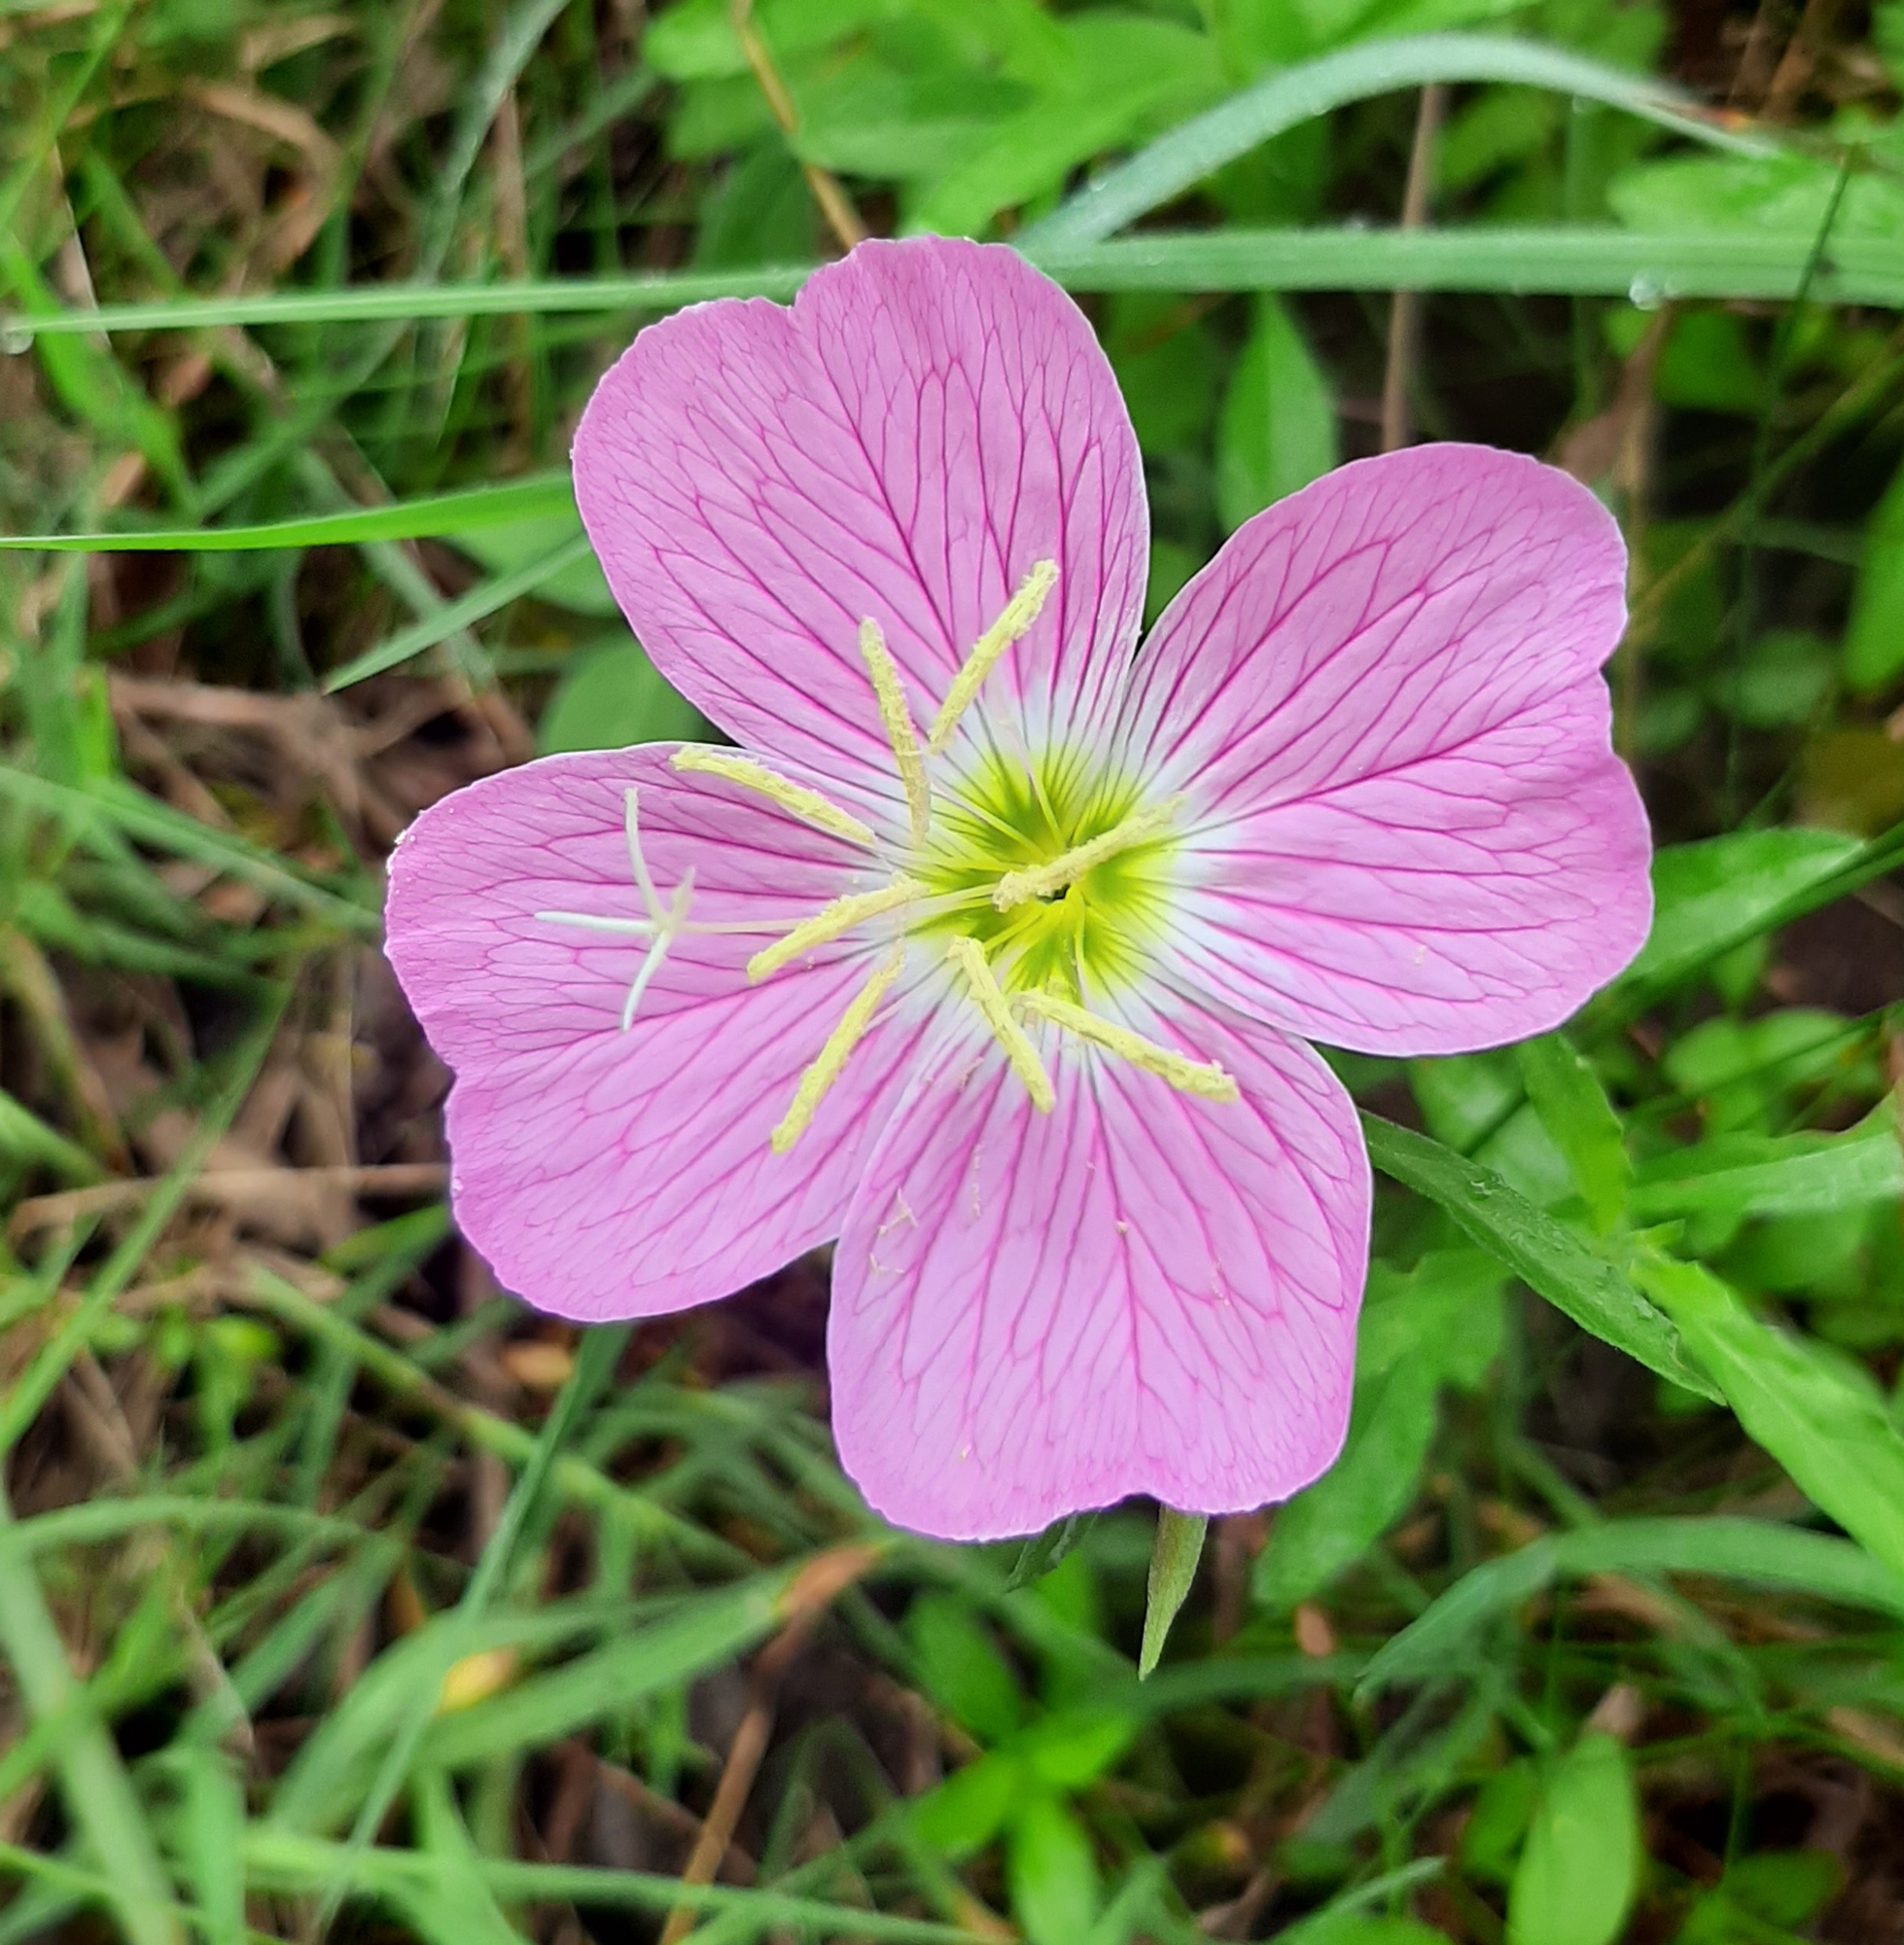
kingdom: Plantae
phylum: Tracheophyta
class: Magnoliopsida
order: Myrtales
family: Onagraceae
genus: Oenothera
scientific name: Oenothera speciosa
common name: White evening-primrose
